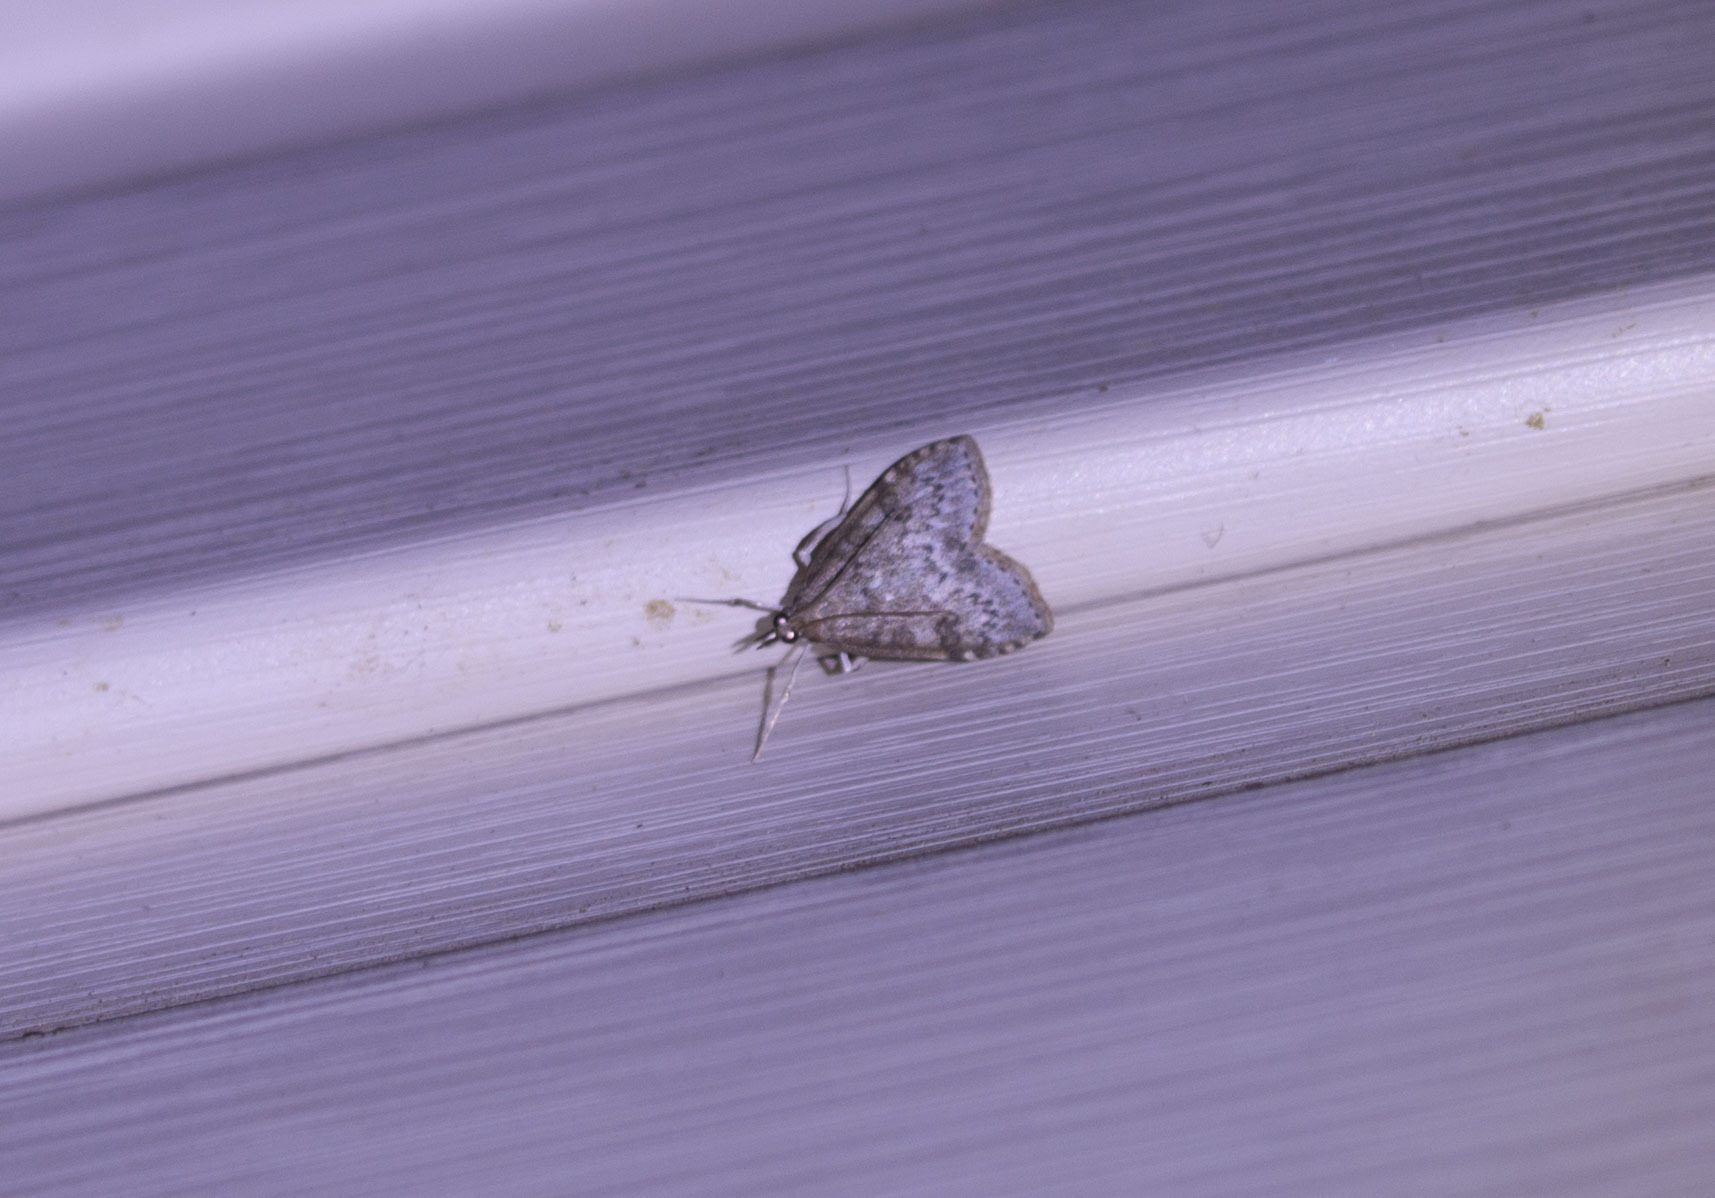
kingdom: Animalia
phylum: Arthropoda
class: Insecta
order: Lepidoptera
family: Crambidae
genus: Udea
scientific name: Udea prunalis
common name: Dusky pearl
